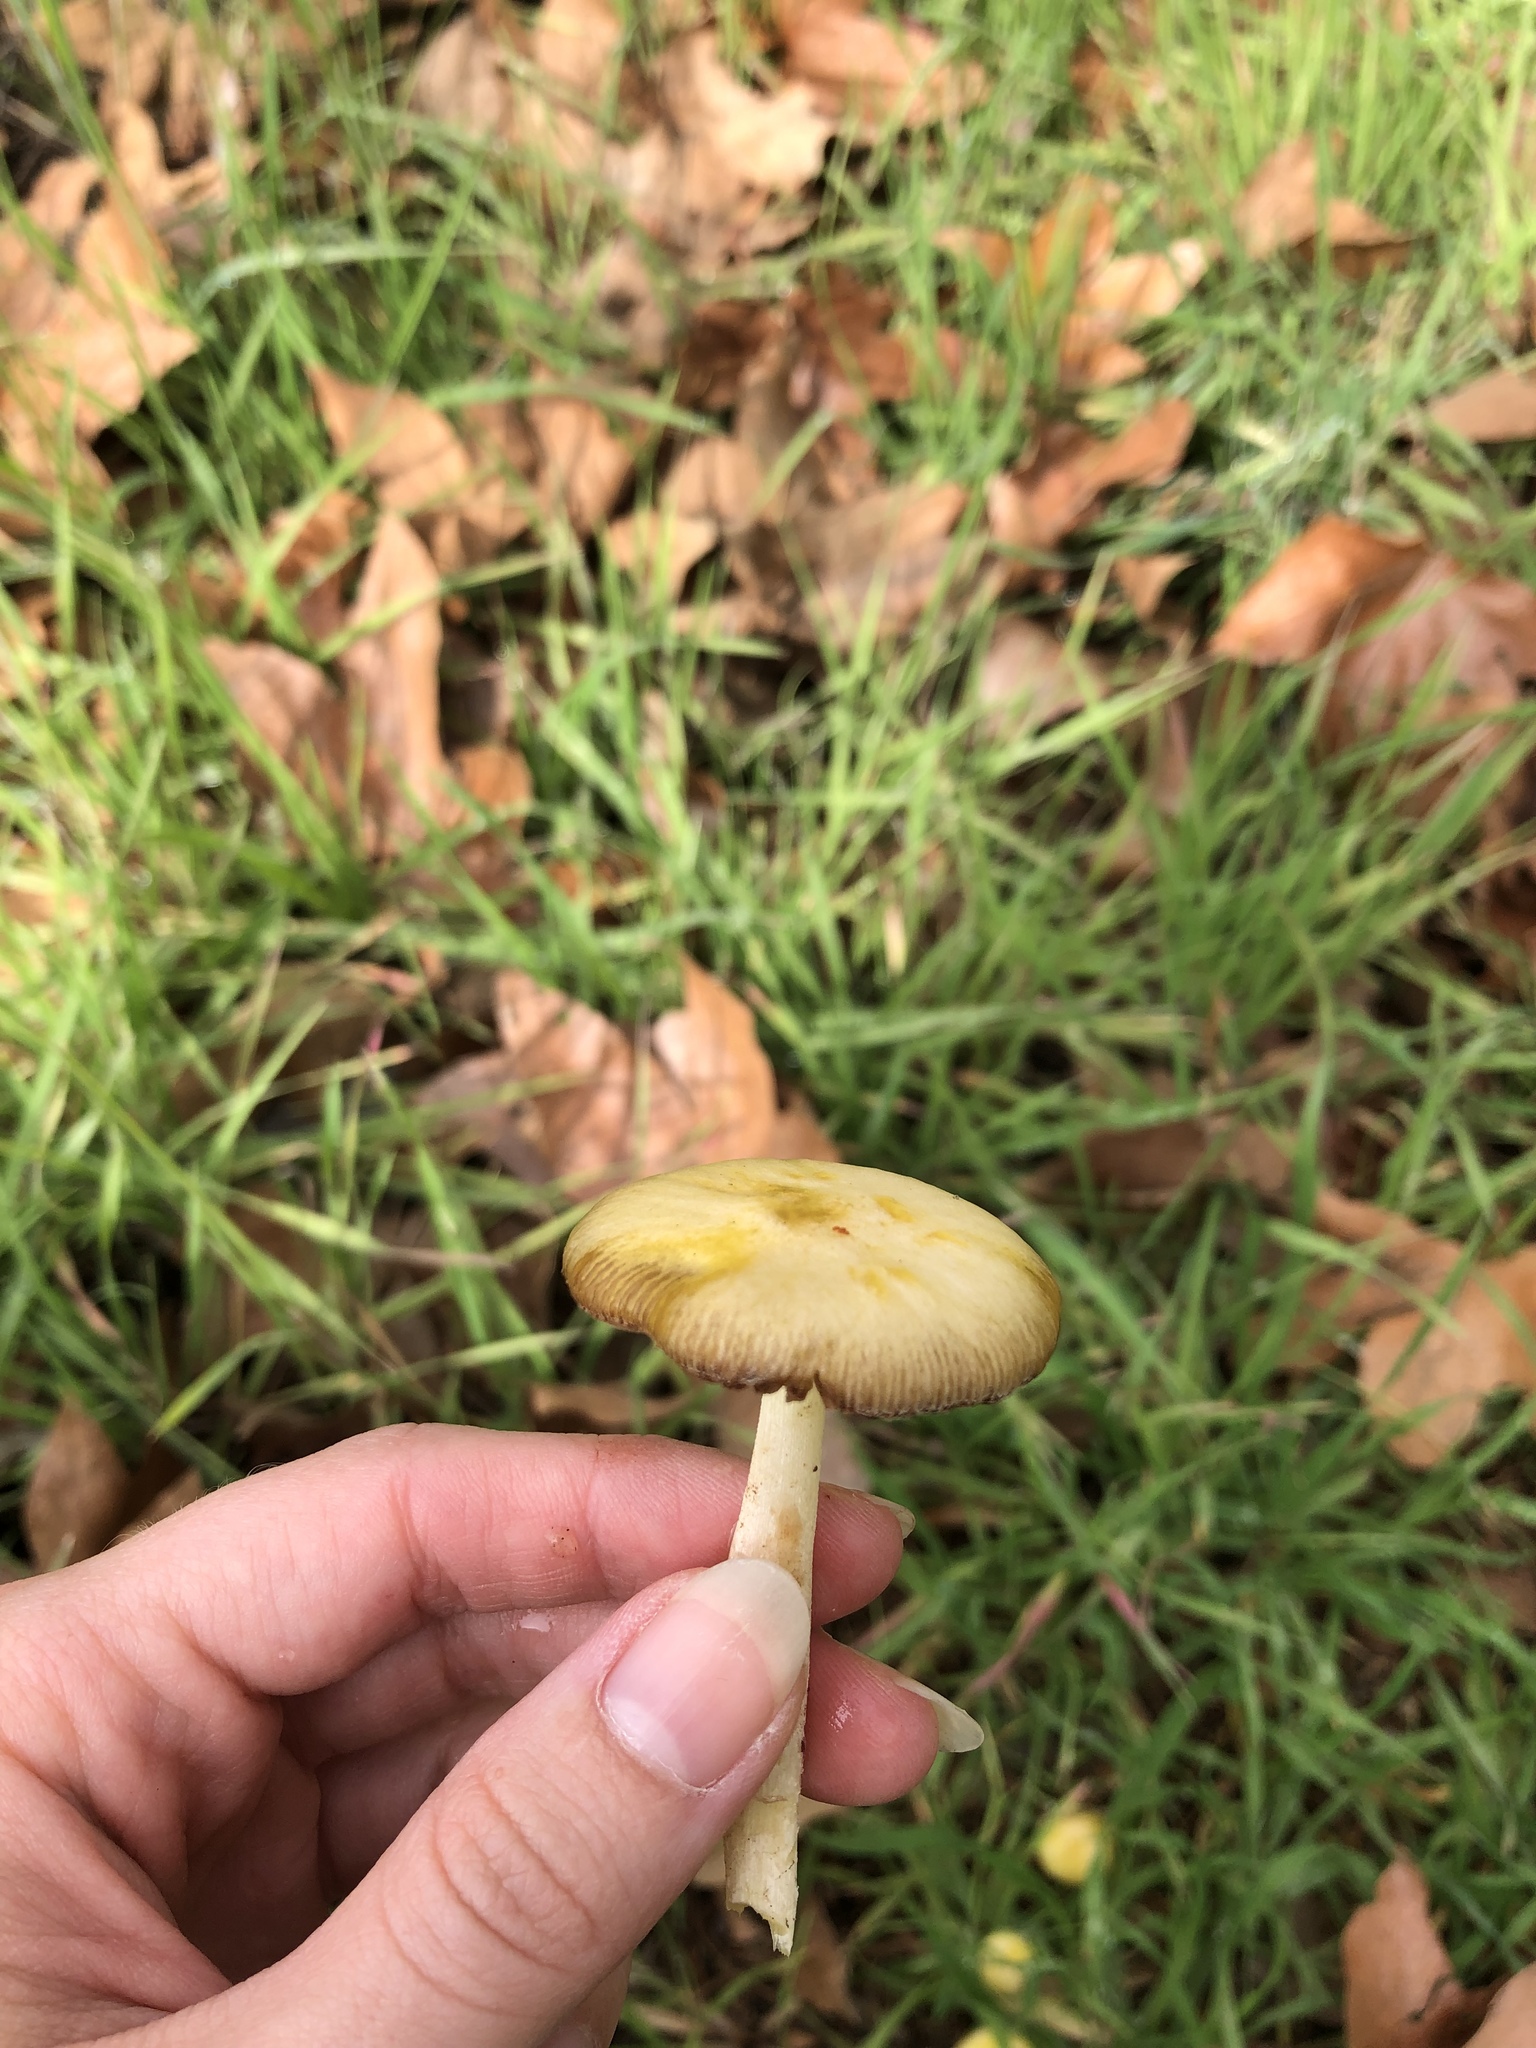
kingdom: Fungi
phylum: Basidiomycota
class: Agaricomycetes
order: Agaricales
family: Bolbitiaceae
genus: Bolbitius
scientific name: Bolbitius titubans
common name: Yellow fieldcap
